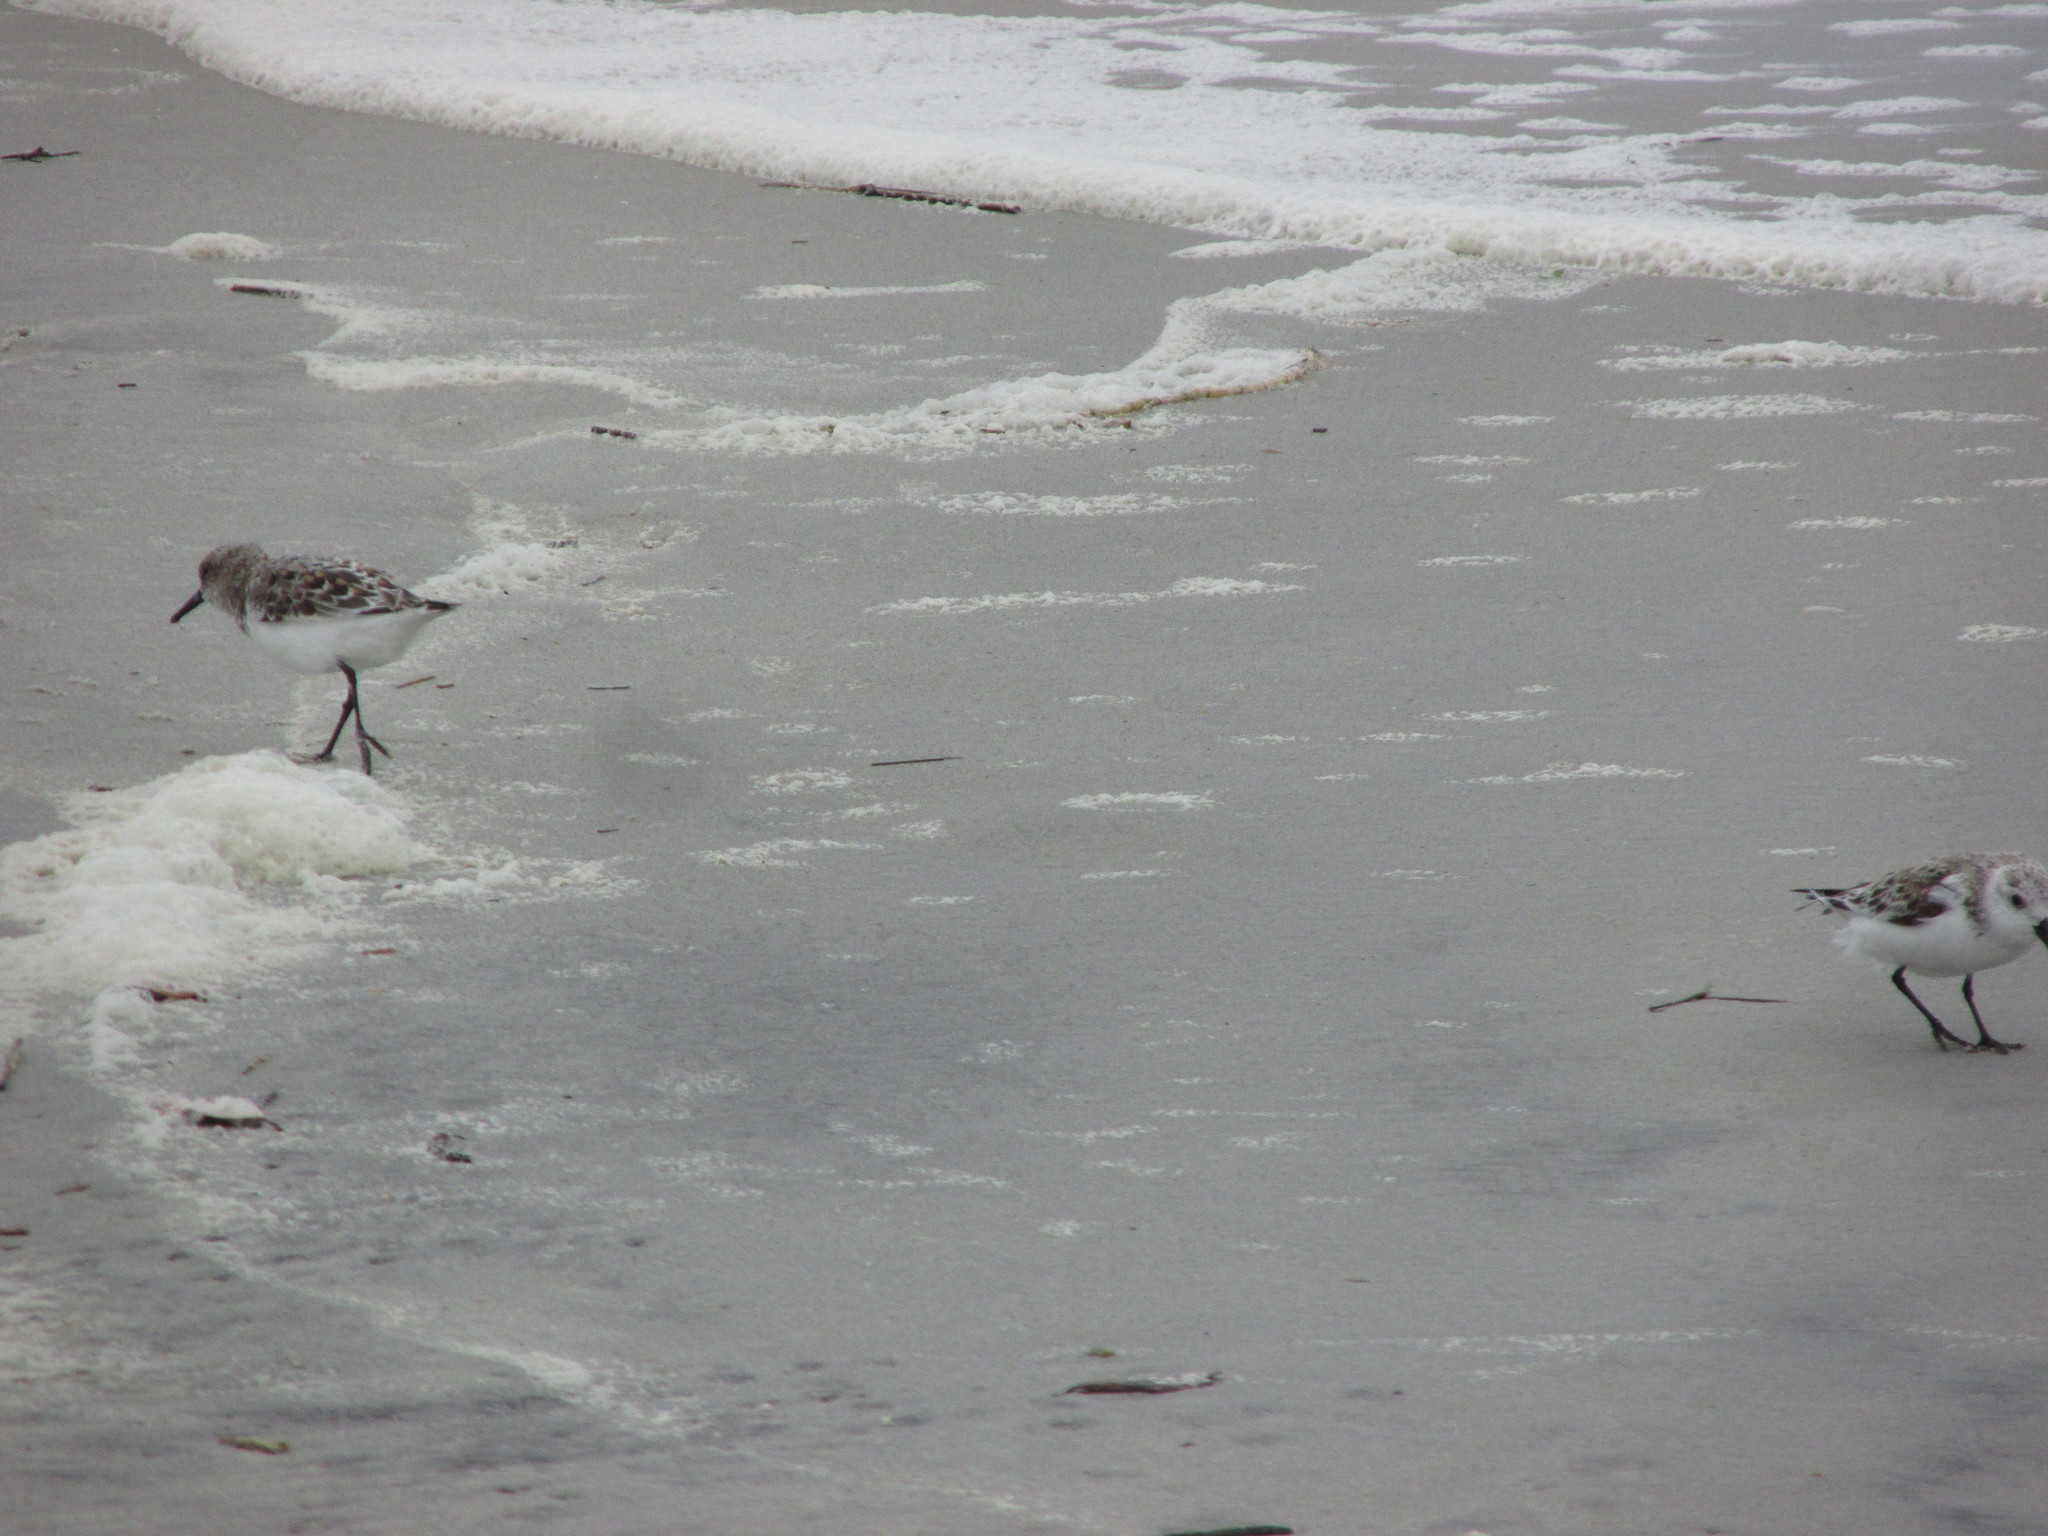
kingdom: Animalia
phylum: Chordata
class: Aves
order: Charadriiformes
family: Scolopacidae
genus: Calidris
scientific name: Calidris alba
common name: Sanderling
